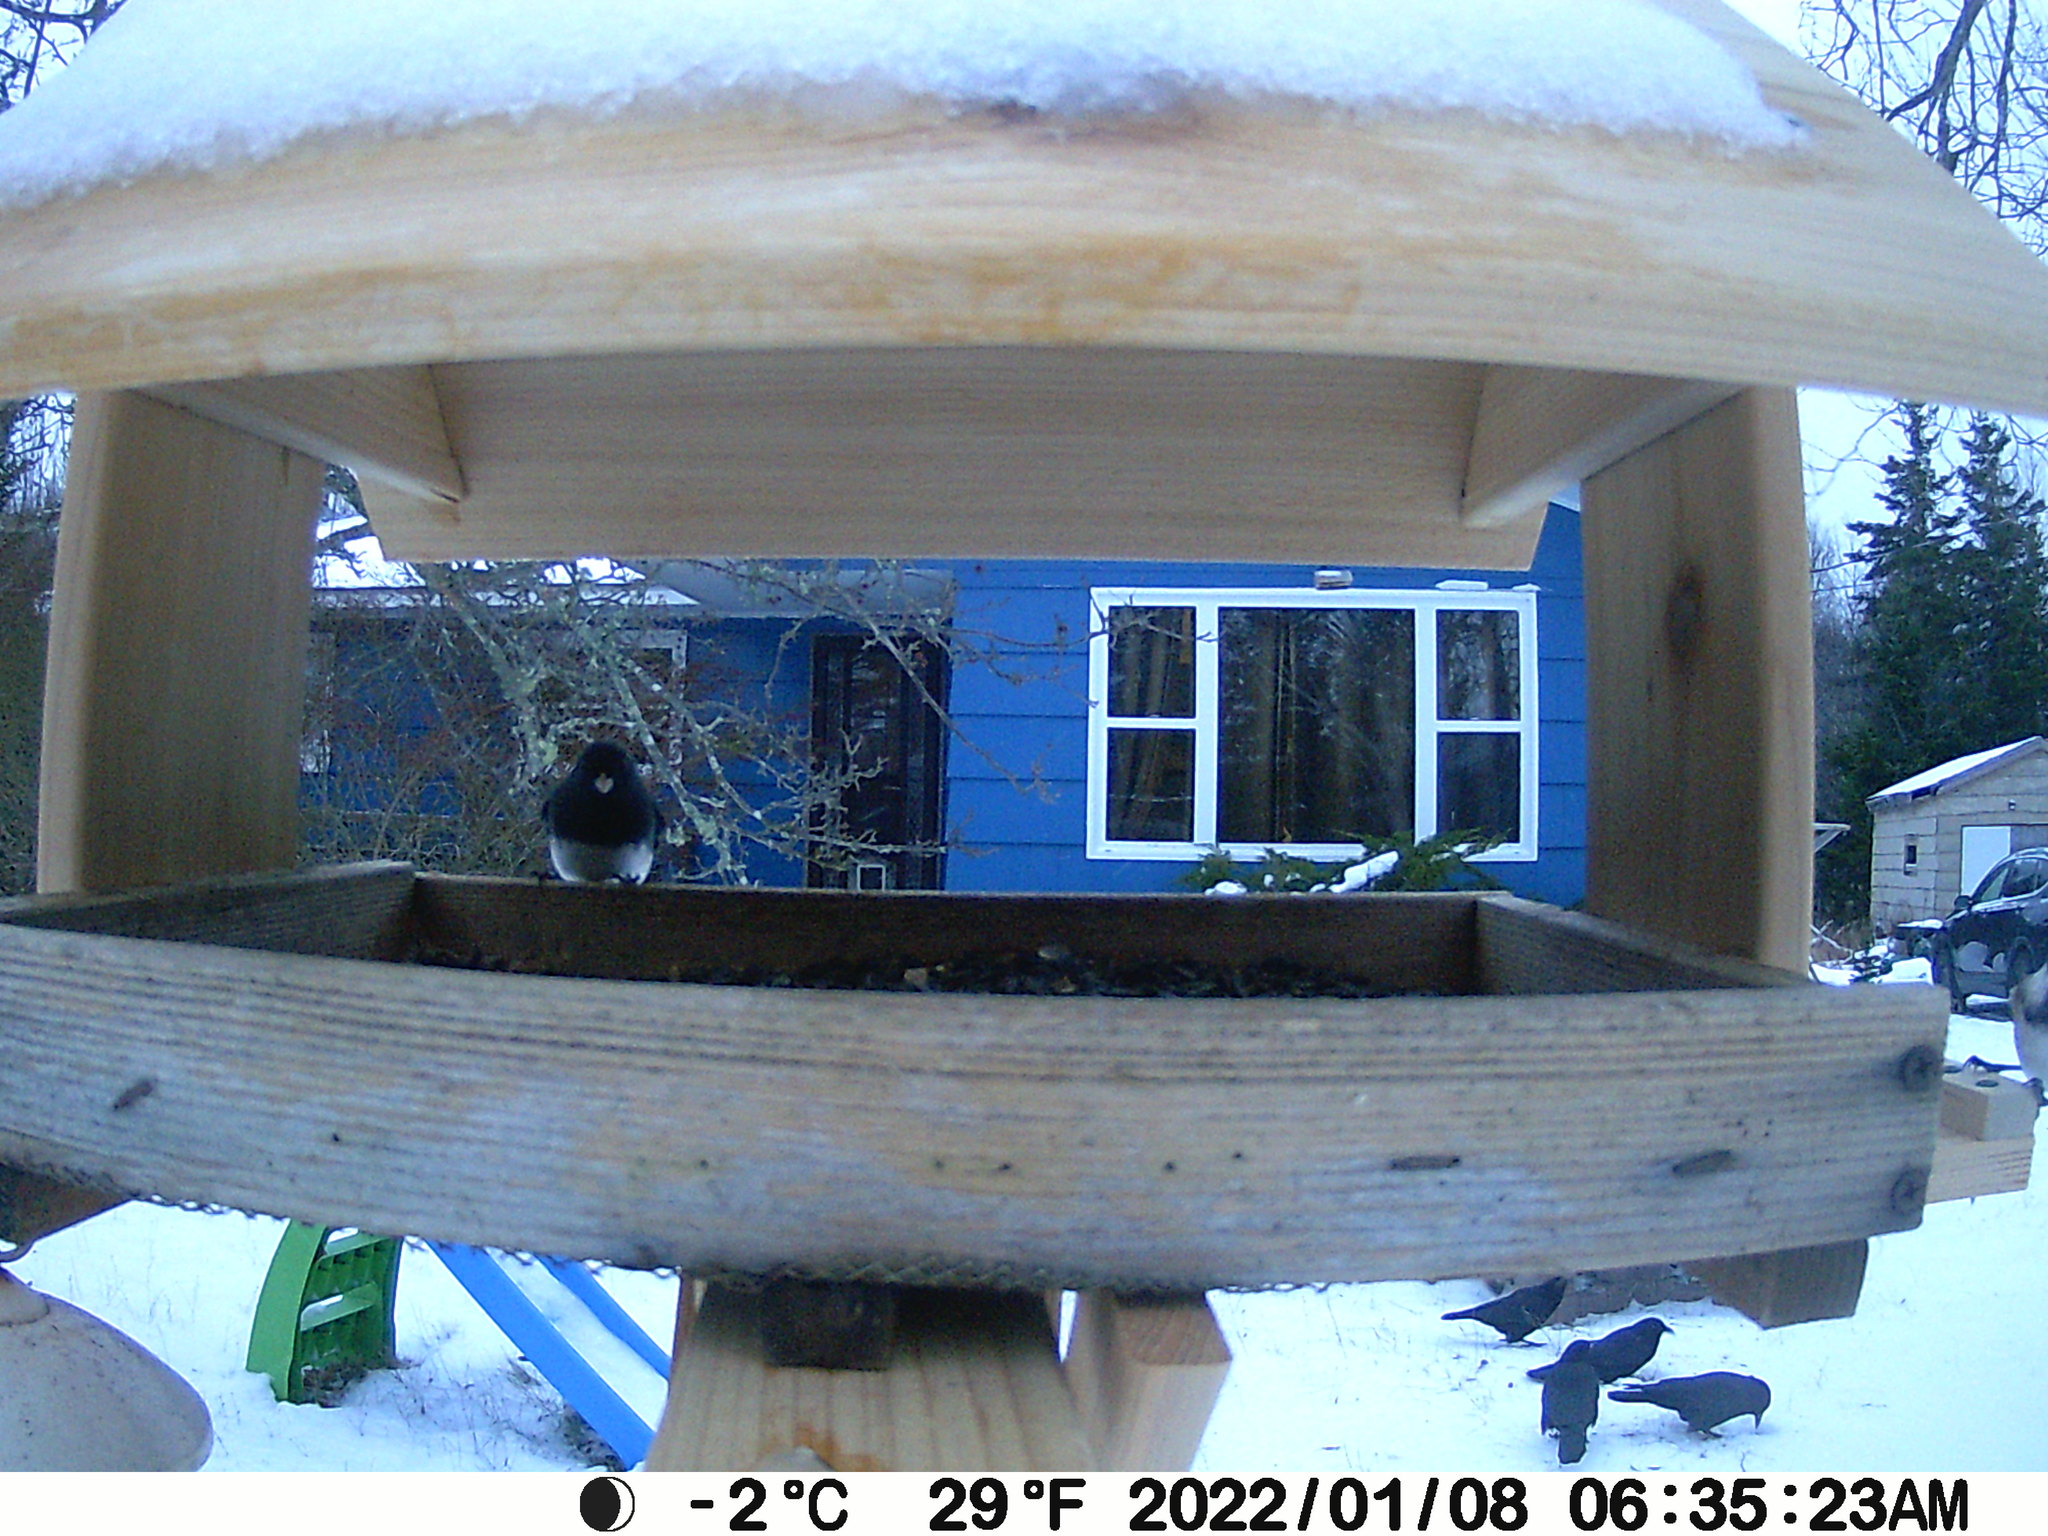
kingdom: Animalia
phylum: Chordata
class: Aves
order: Passeriformes
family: Passerellidae
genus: Junco
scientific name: Junco hyemalis
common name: Dark-eyed junco
